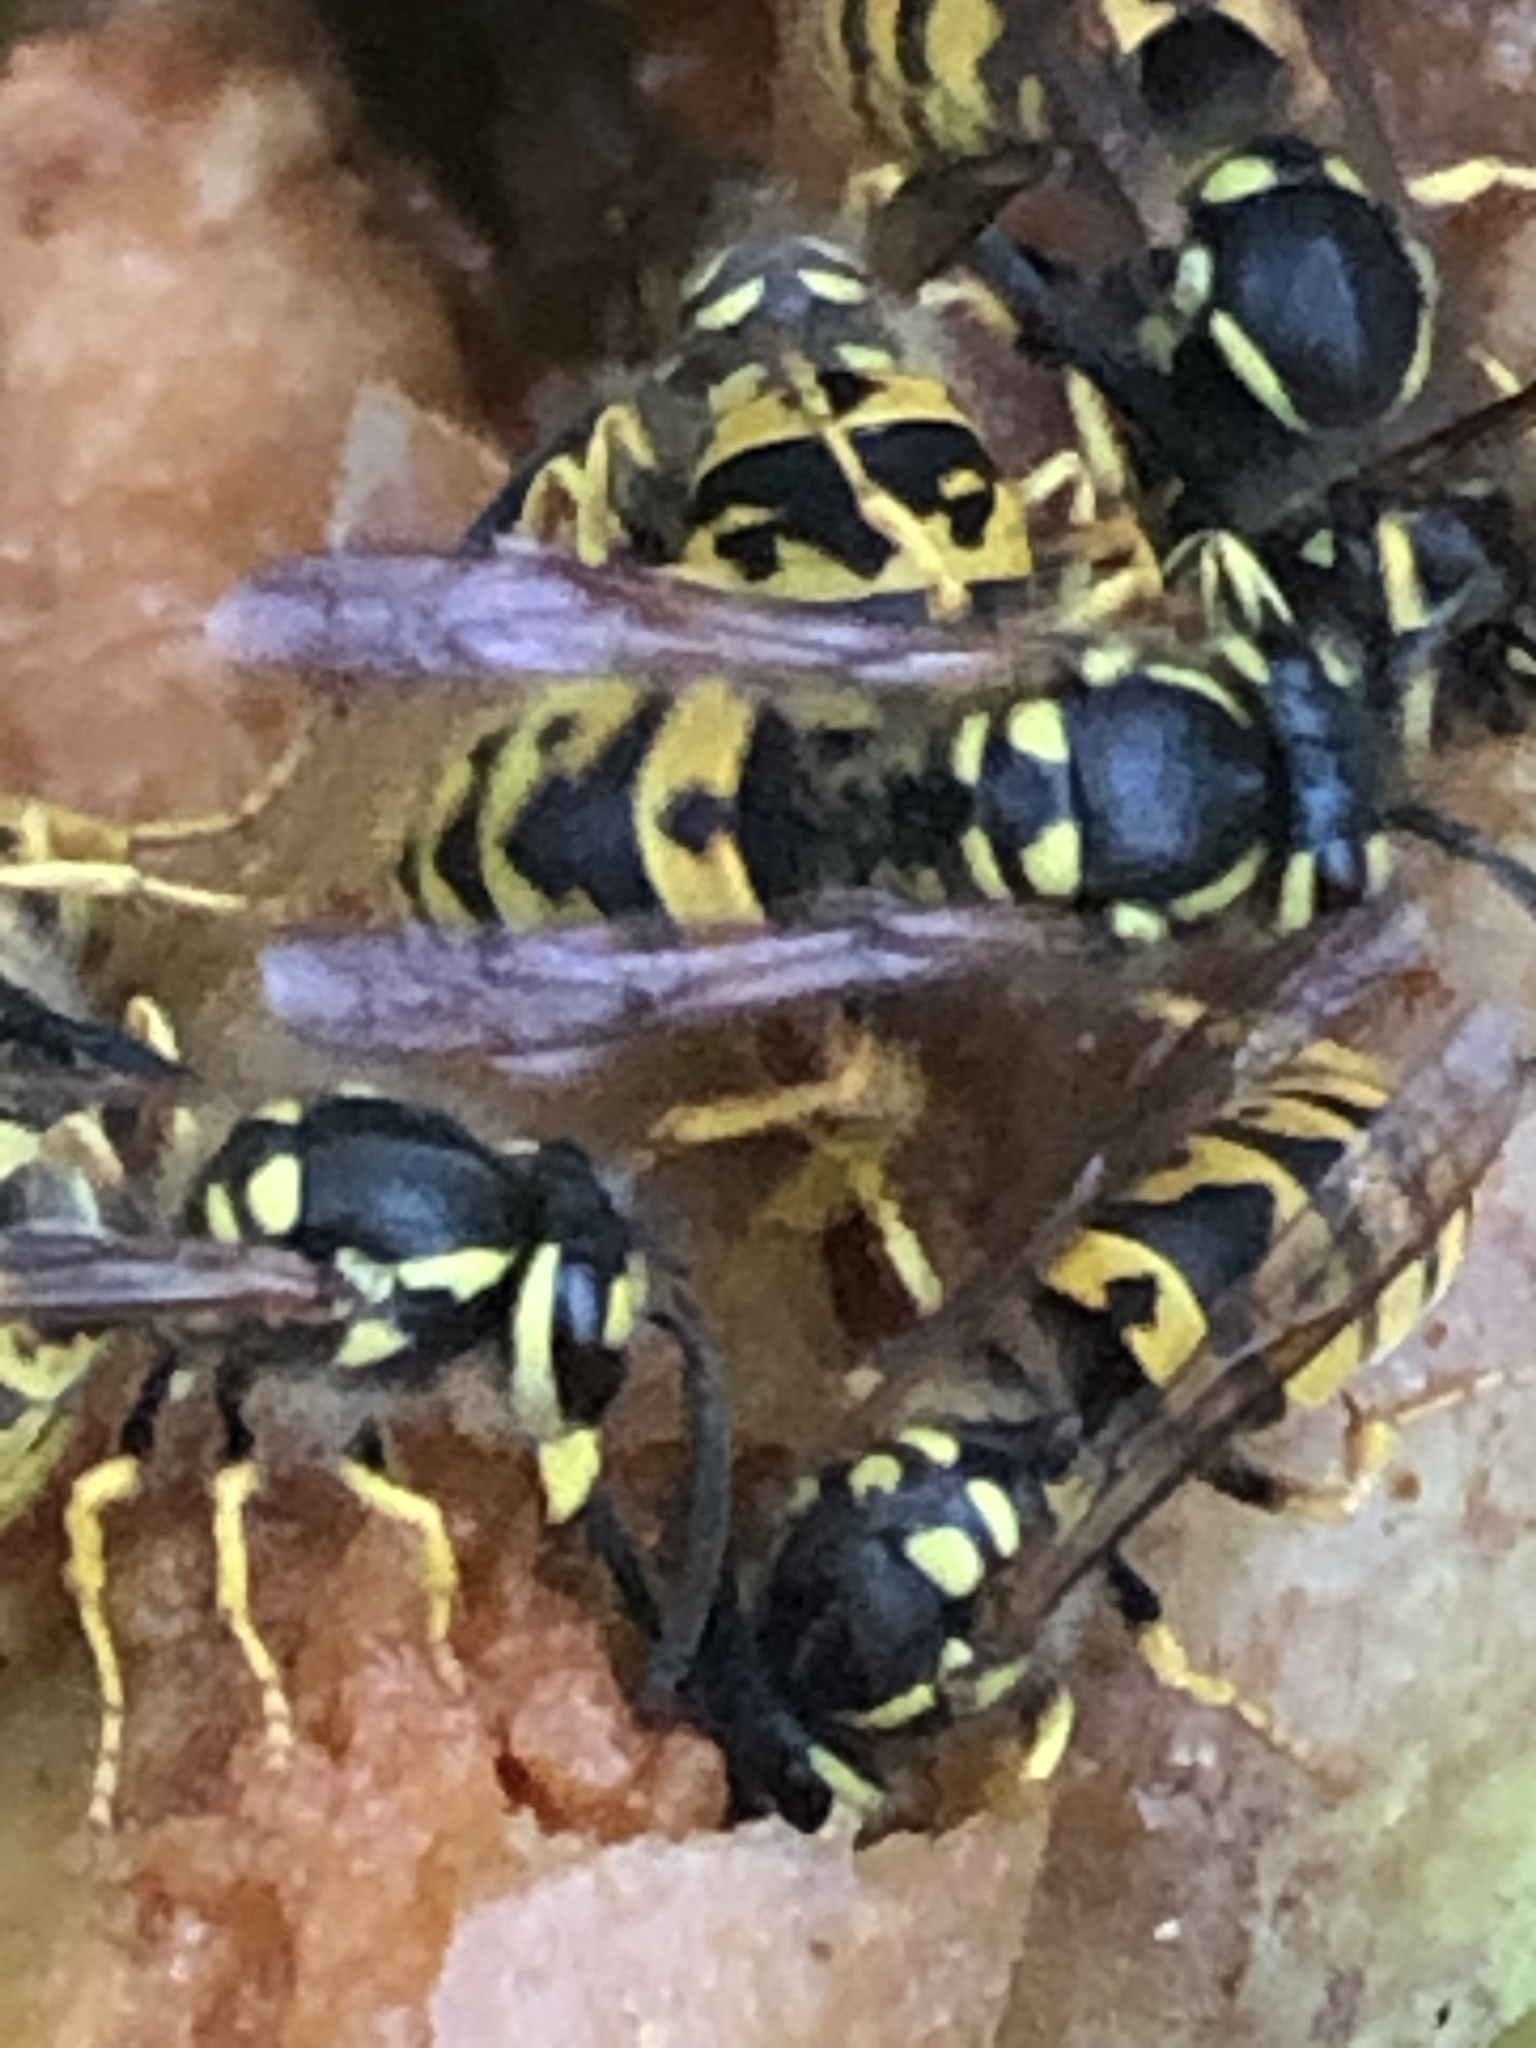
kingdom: Animalia
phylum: Arthropoda
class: Insecta
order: Hymenoptera
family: Vespidae
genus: Vespula
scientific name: Vespula germanica
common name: German wasp
